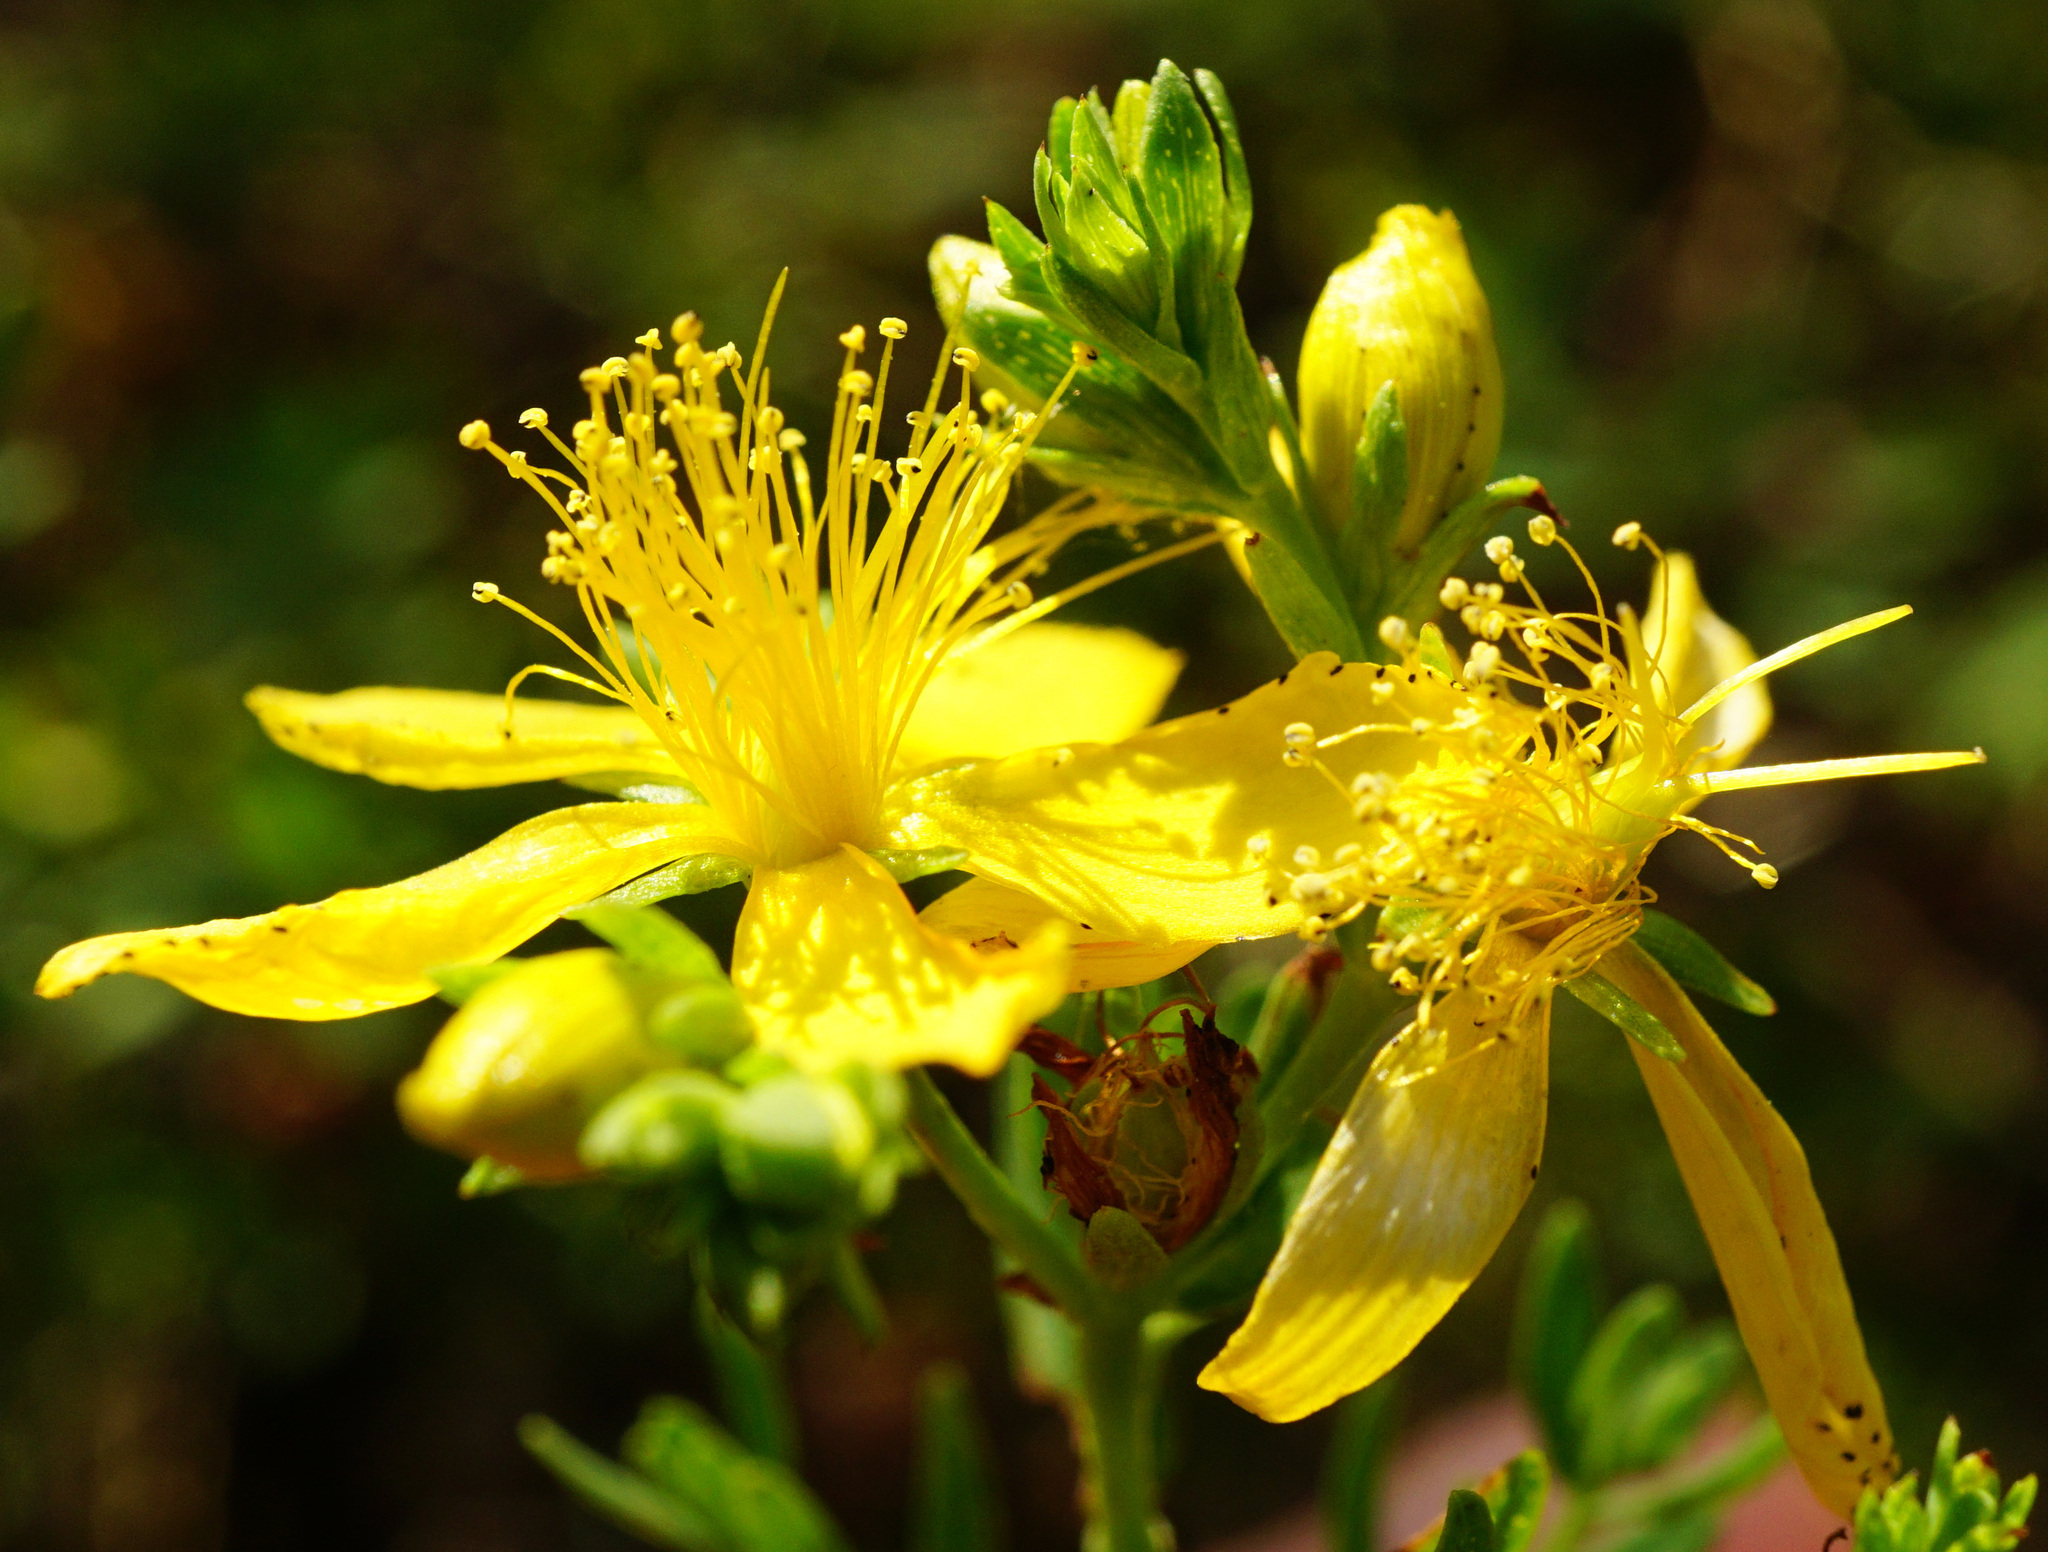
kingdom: Plantae
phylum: Tracheophyta
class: Magnoliopsida
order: Malpighiales
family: Hypericaceae
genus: Hypericum
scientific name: Hypericum perforatum
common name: Common st. johnswort
